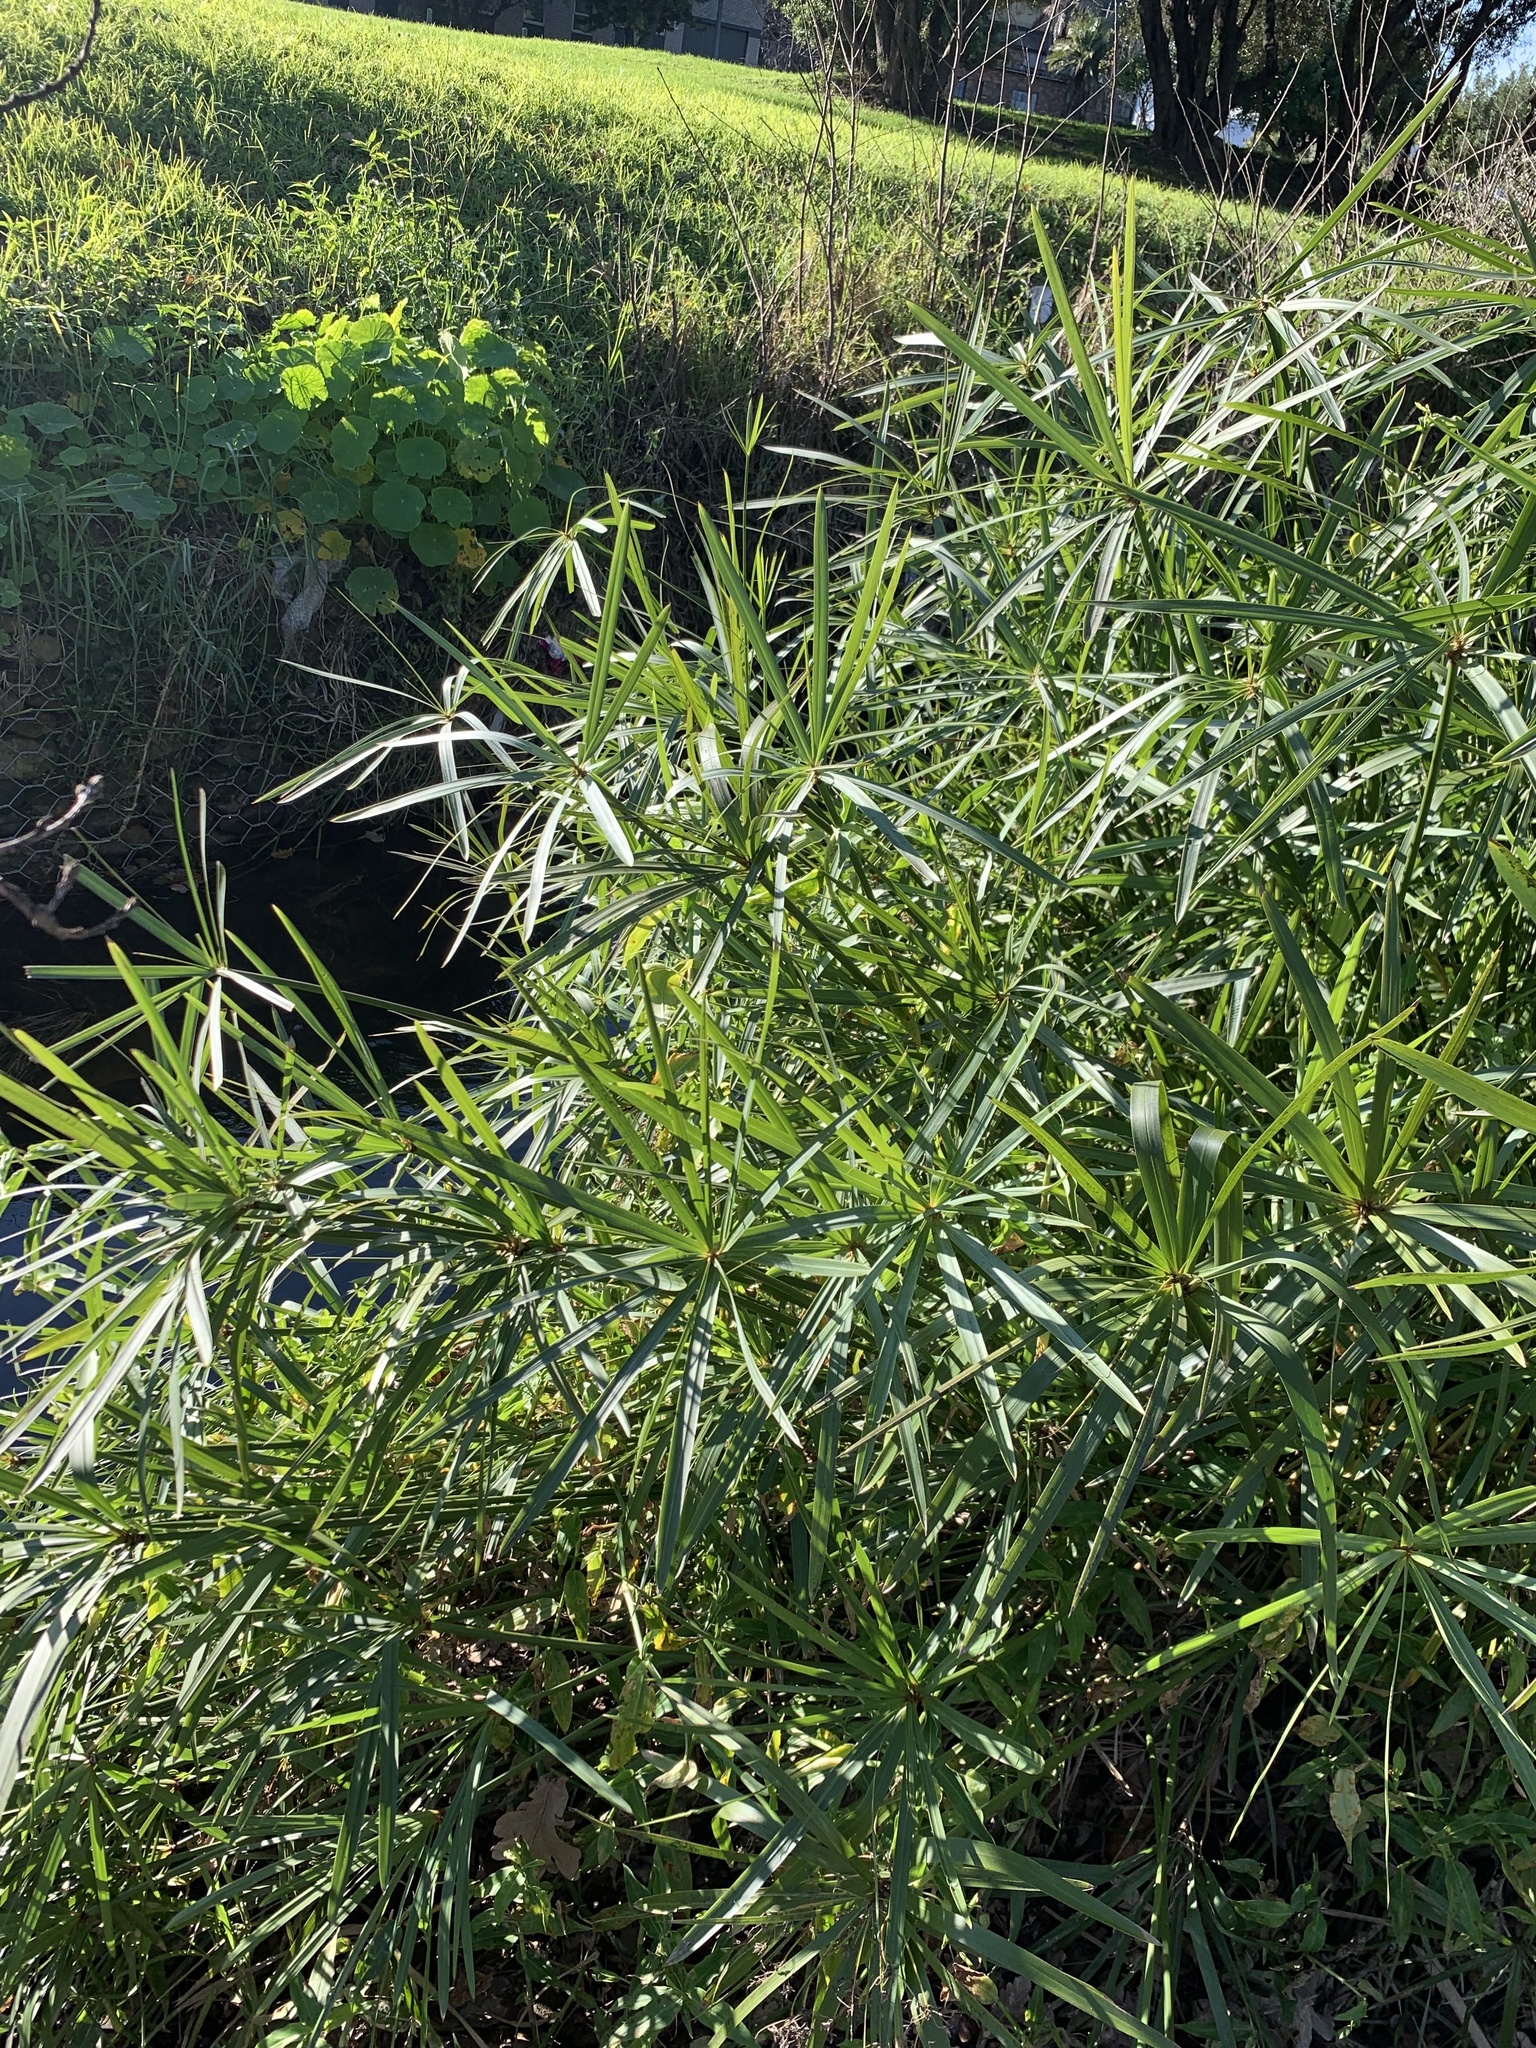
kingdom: Plantae
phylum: Tracheophyta
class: Liliopsida
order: Poales
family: Cyperaceae
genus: Cyperus
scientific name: Cyperus textilis
